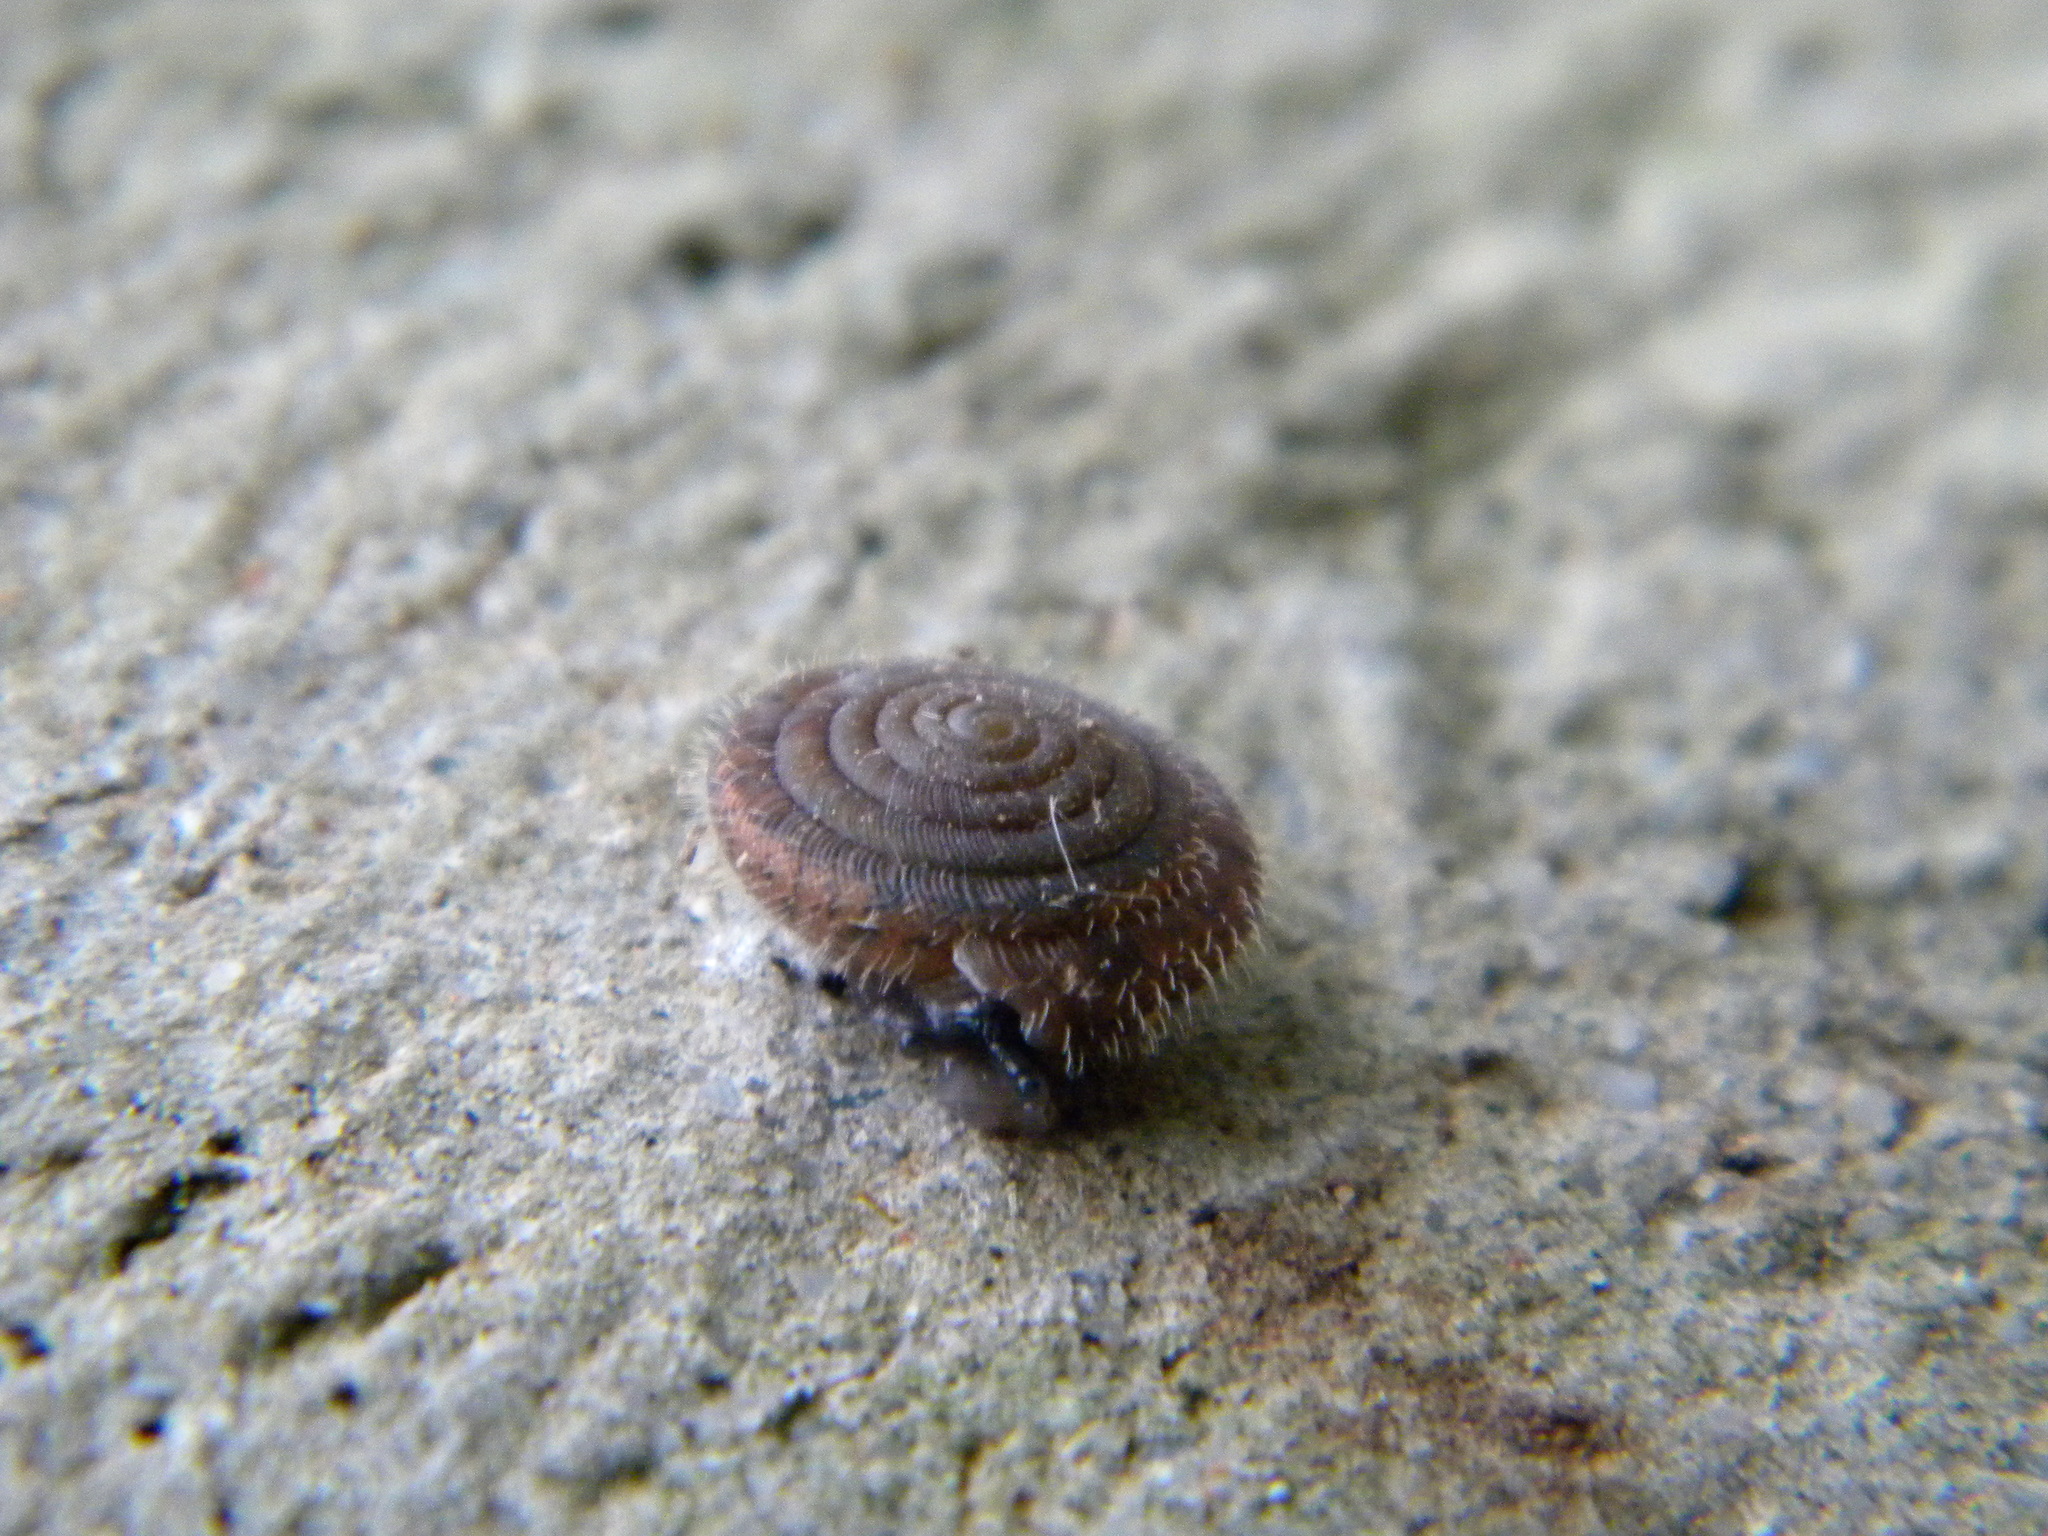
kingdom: Animalia
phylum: Mollusca
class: Gastropoda
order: Stylommatophora
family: Helicodontidae
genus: Lindholmiola
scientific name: Lindholmiola lens
